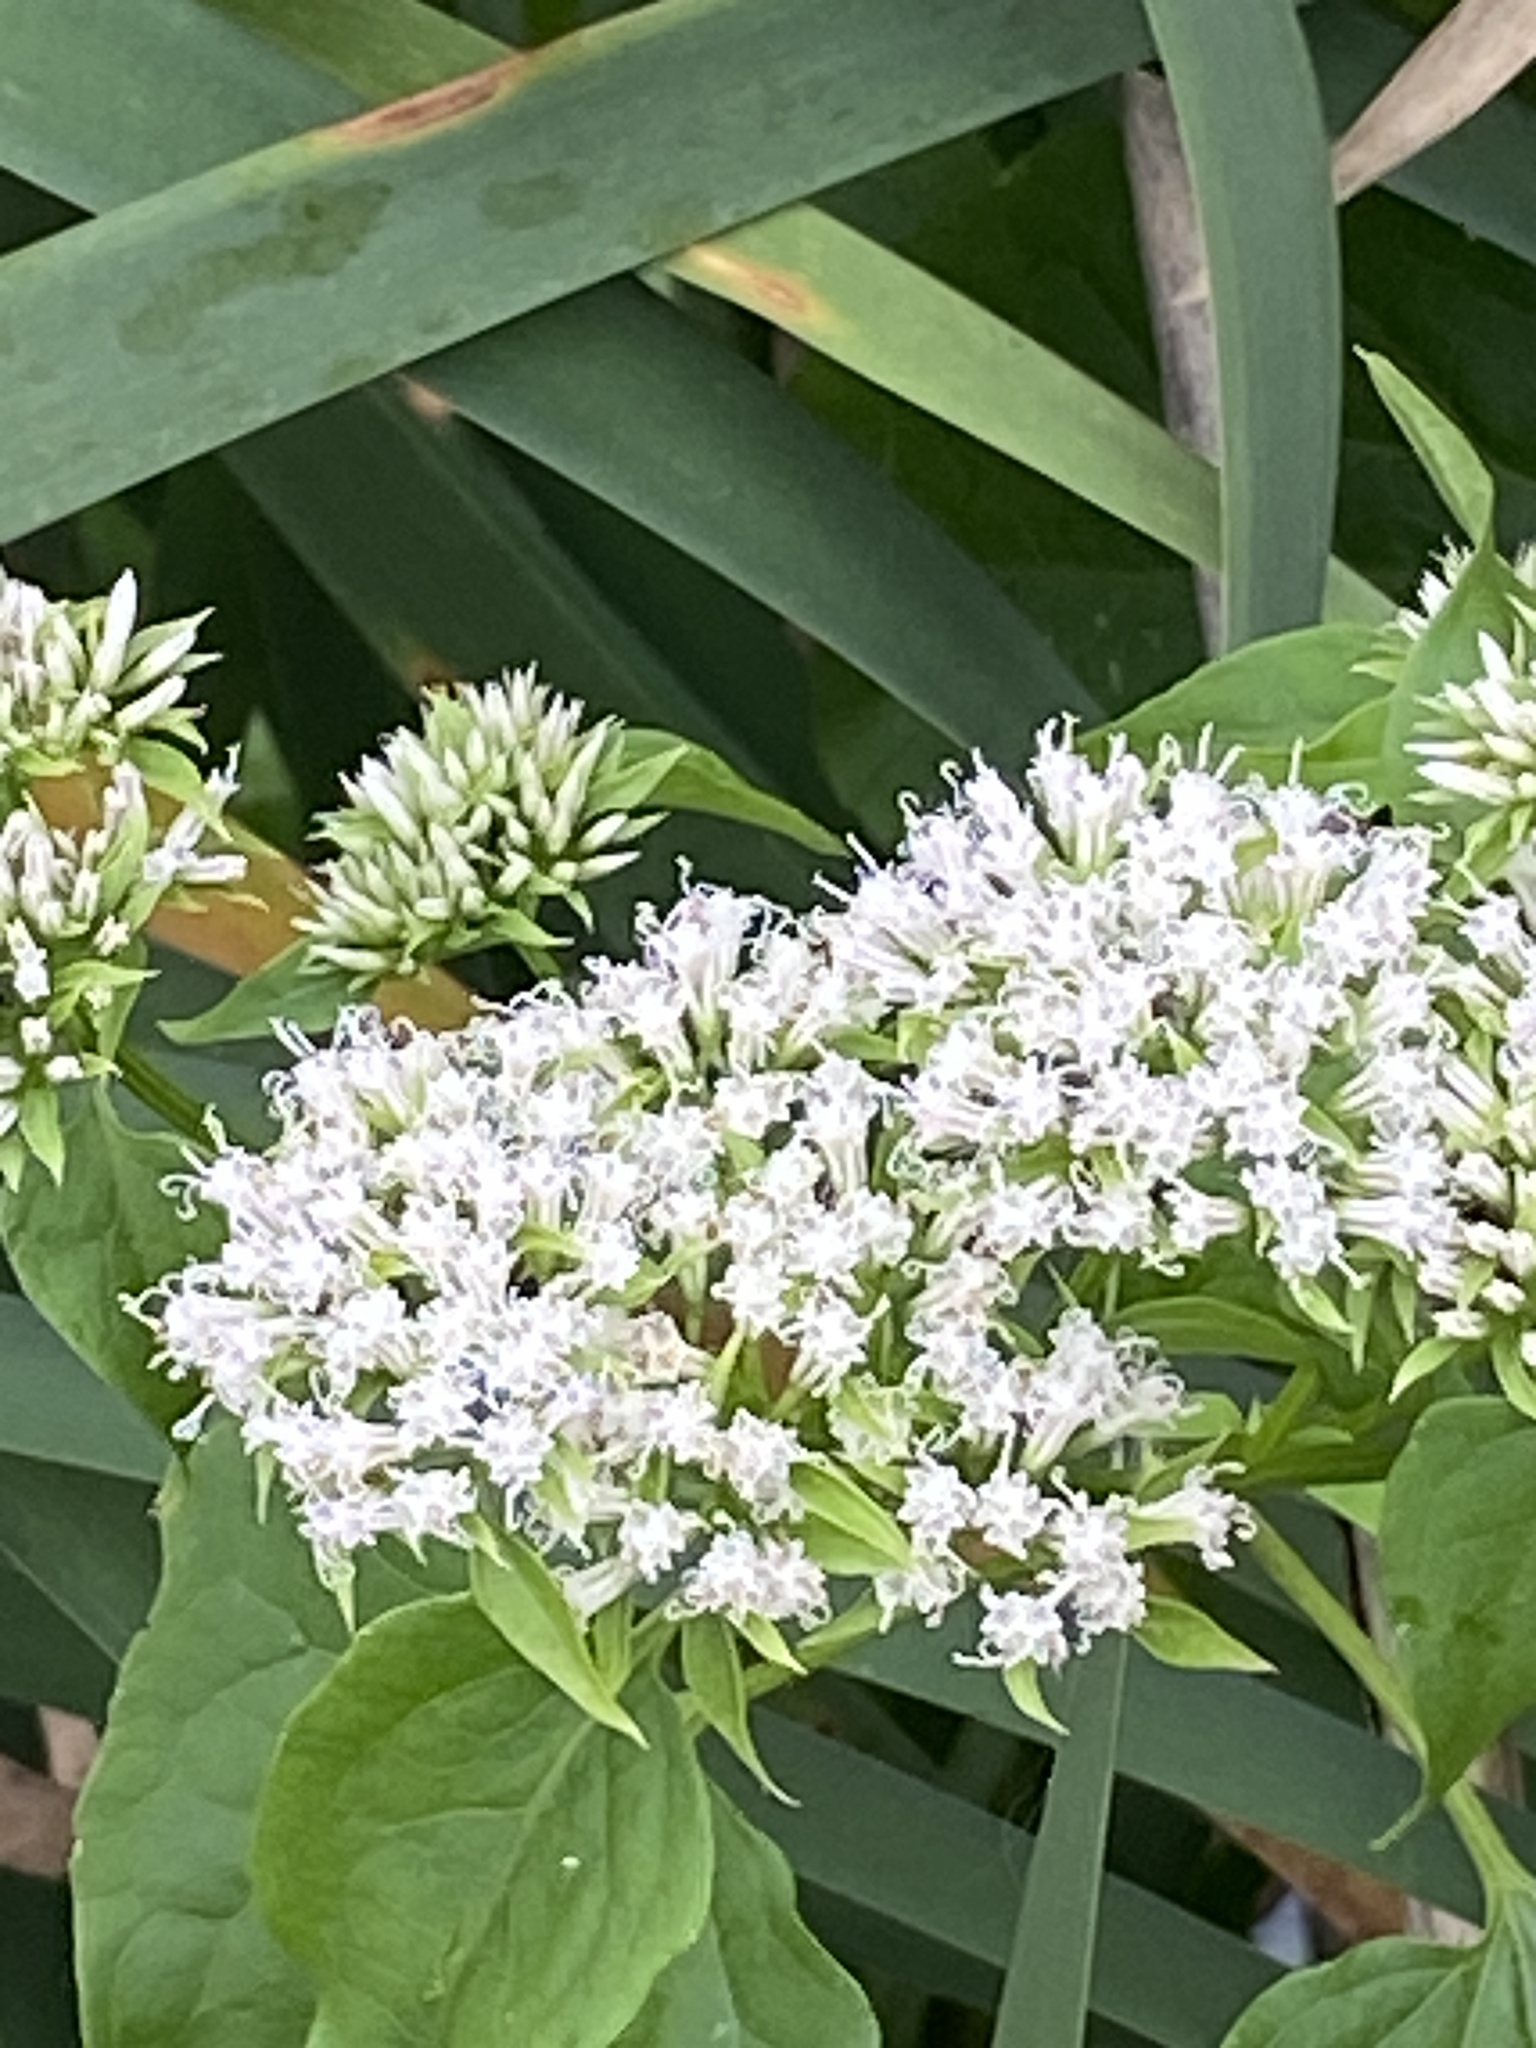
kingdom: Plantae
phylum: Tracheophyta
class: Magnoliopsida
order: Asterales
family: Asteraceae
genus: Mikania
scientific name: Mikania scandens
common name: Climbing hempvine
